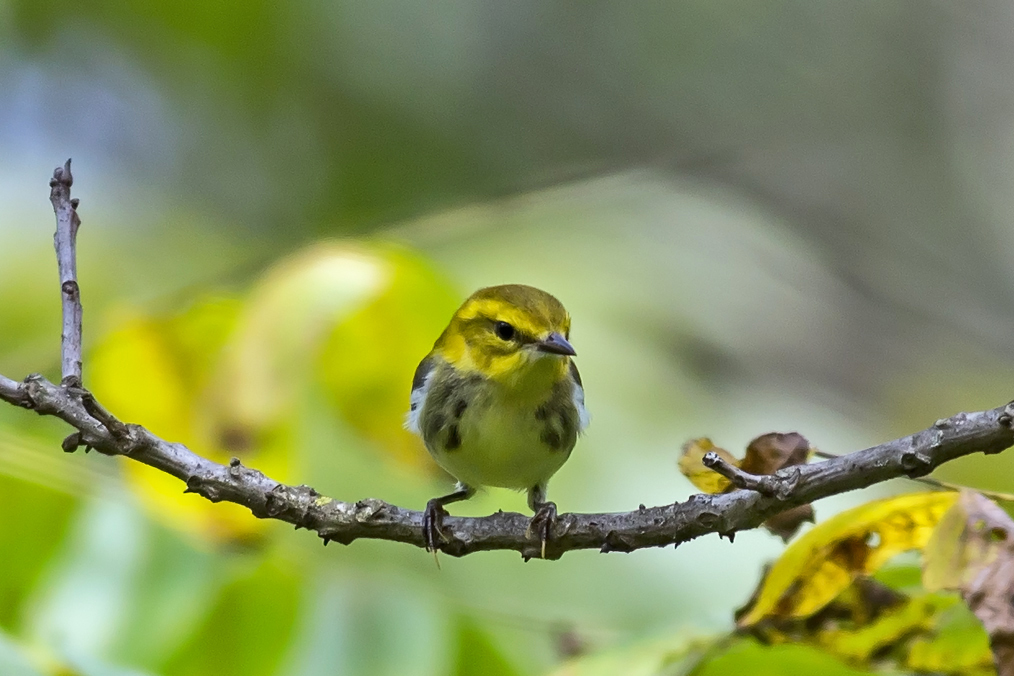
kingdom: Animalia
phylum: Chordata
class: Aves
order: Passeriformes
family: Parulidae
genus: Setophaga
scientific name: Setophaga virens
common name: Black-throated green warbler
